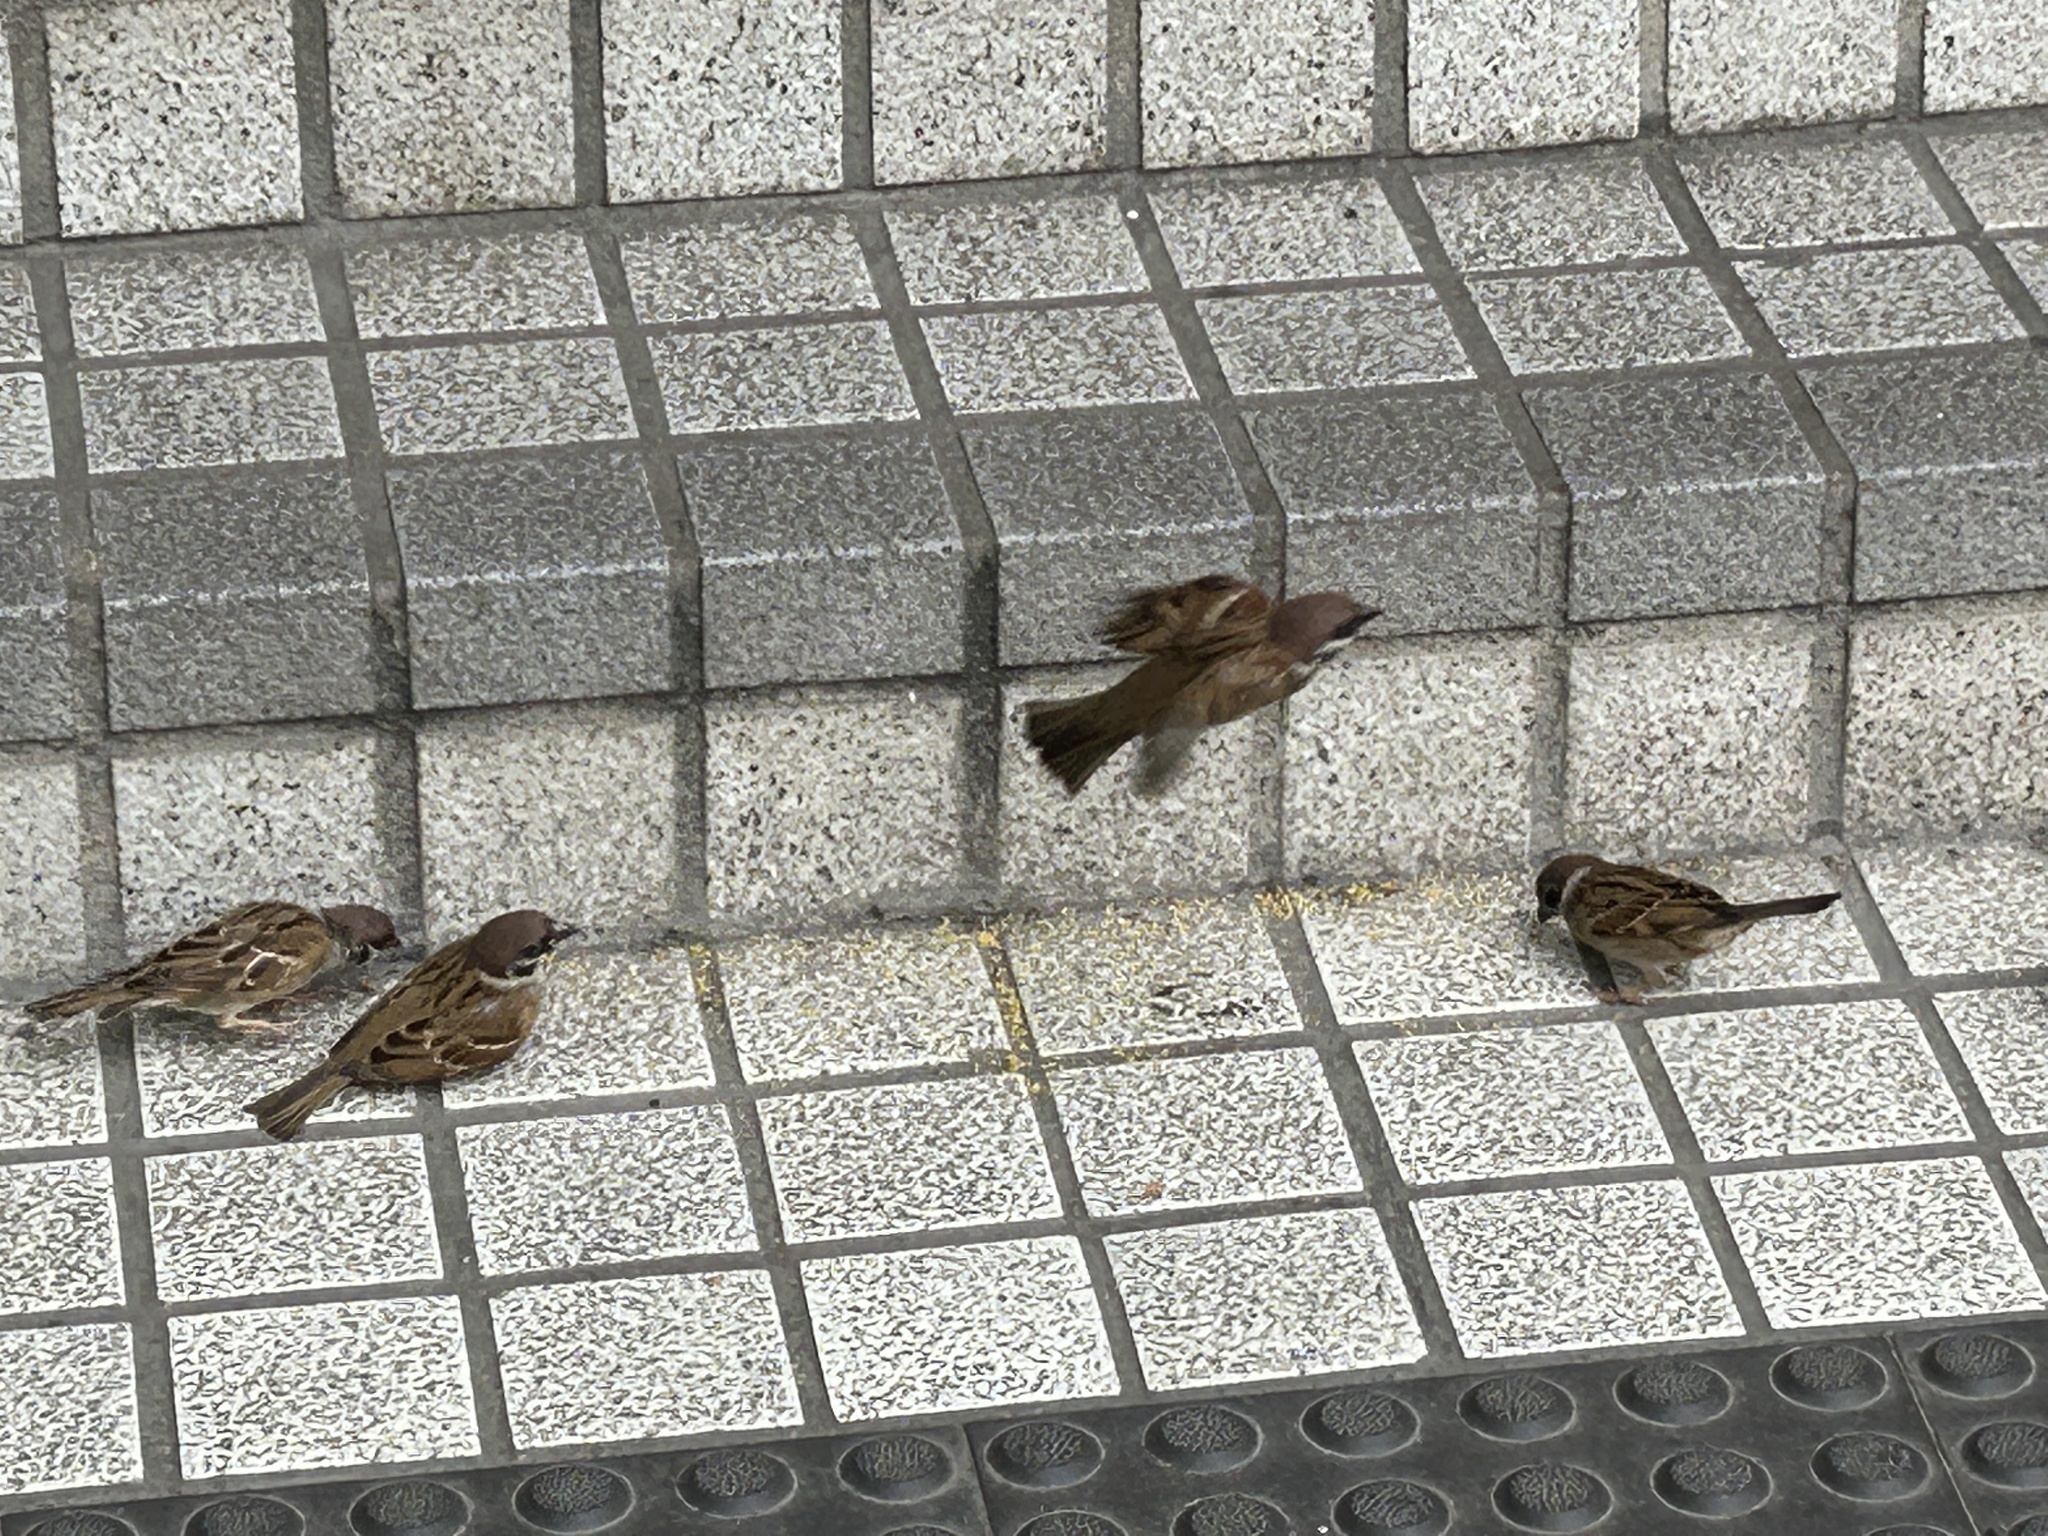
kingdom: Animalia
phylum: Chordata
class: Aves
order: Passeriformes
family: Passeridae
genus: Passer
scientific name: Passer montanus
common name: Eurasian tree sparrow
